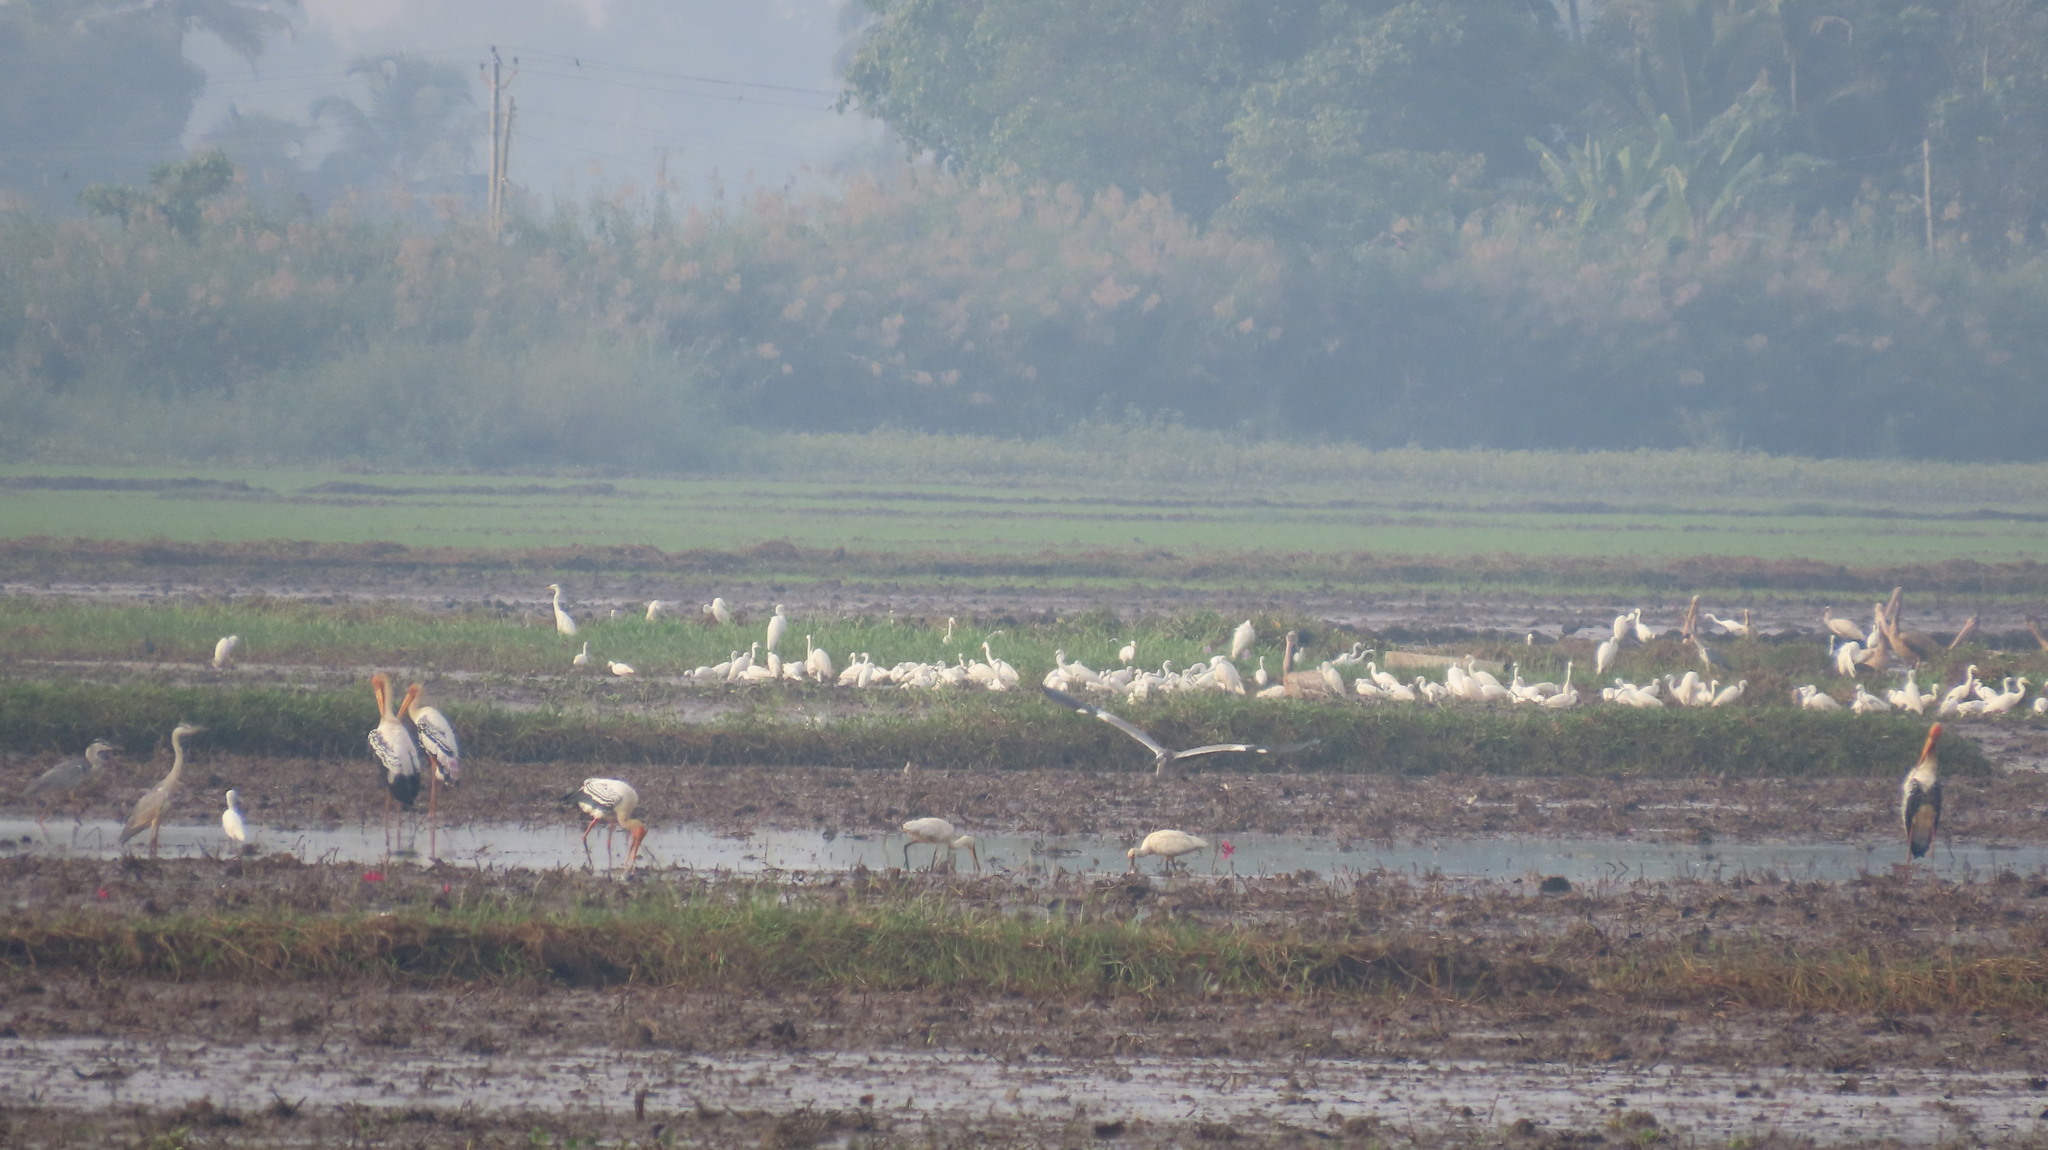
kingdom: Animalia
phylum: Chordata
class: Aves
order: Pelecaniformes
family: Pelecanidae
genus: Pelecanus
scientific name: Pelecanus philippensis
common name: Spot-billed pelican
